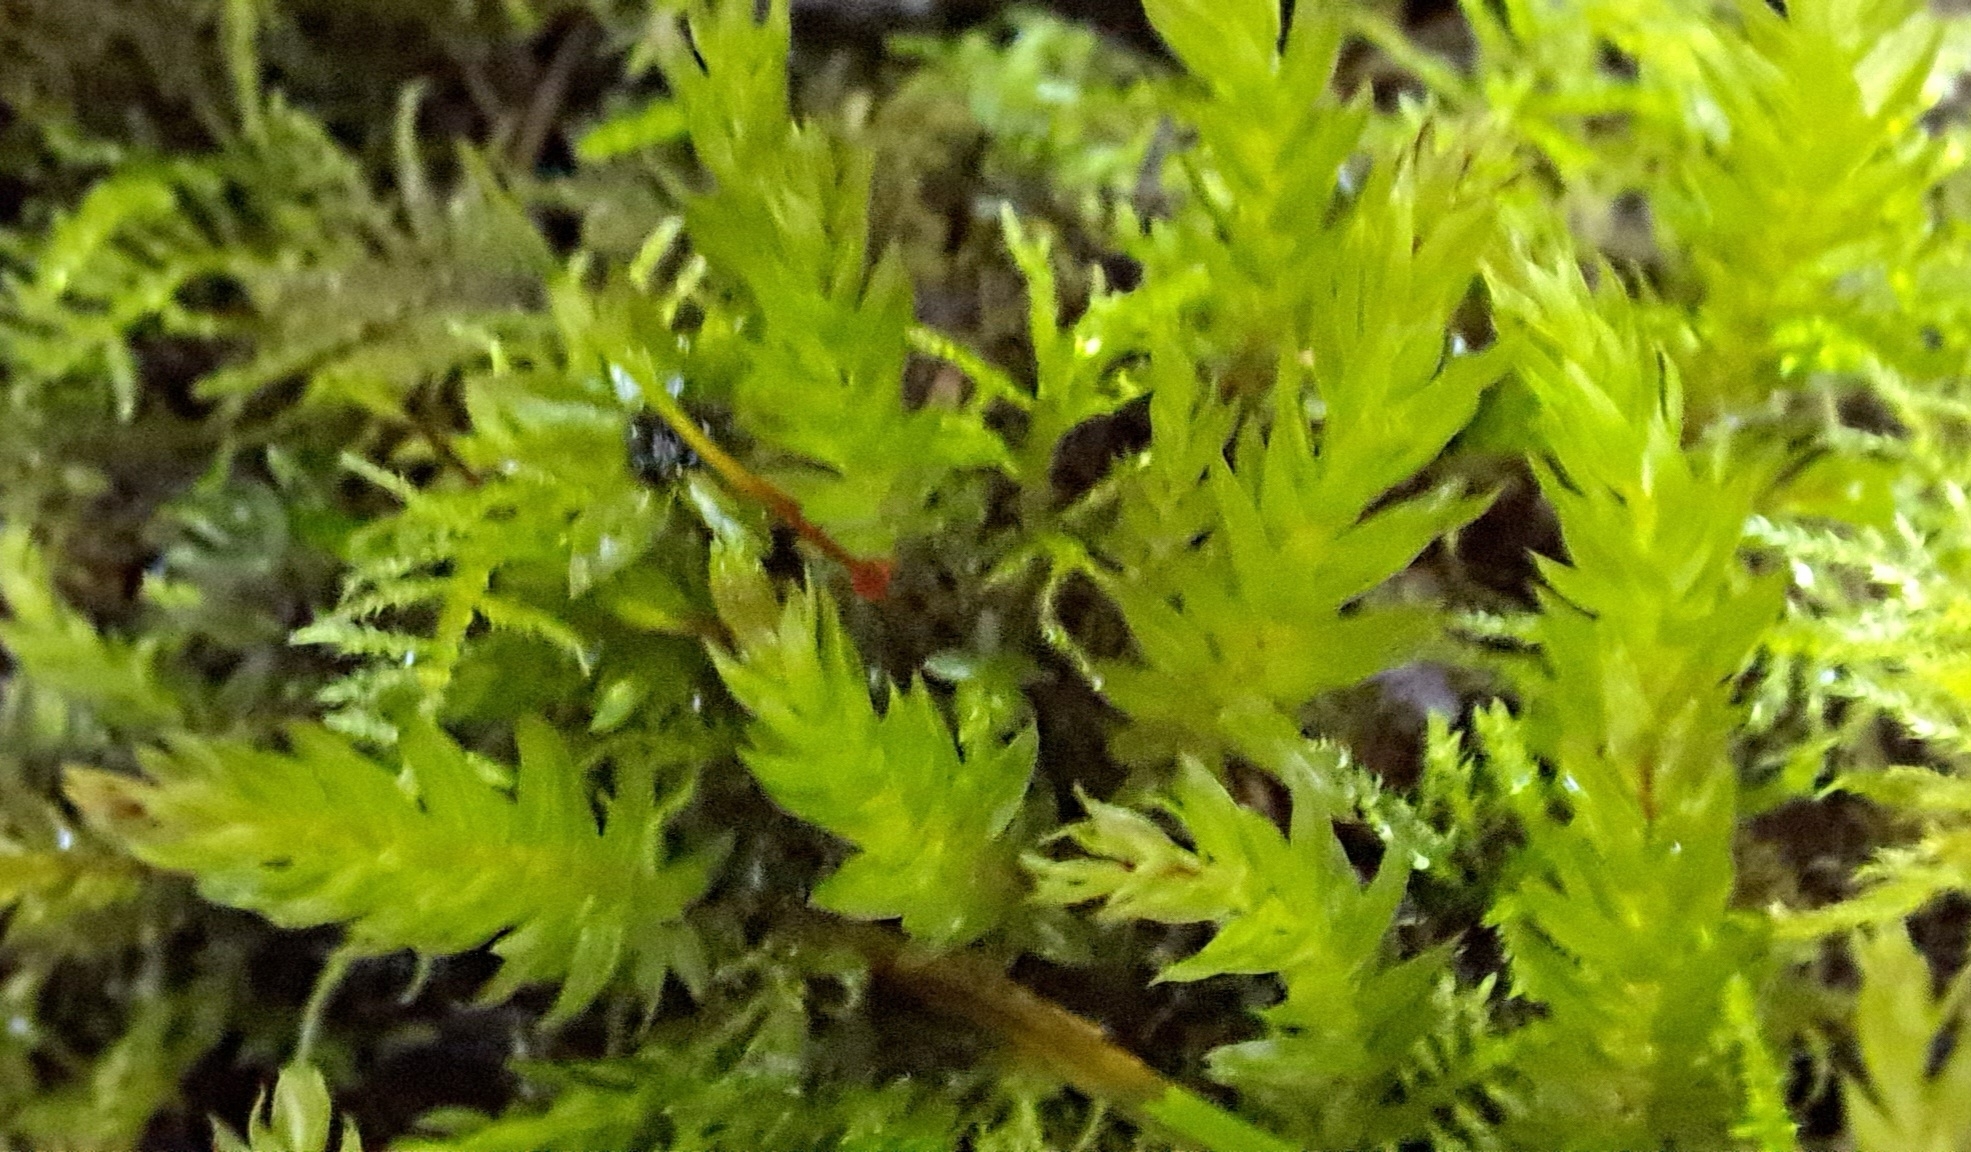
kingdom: Plantae
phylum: Bryophyta
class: Bryopsida
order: Bryales
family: Mniaceae
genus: Mnium
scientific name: Mnium hornum
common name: Swan's-neck leafy moss
